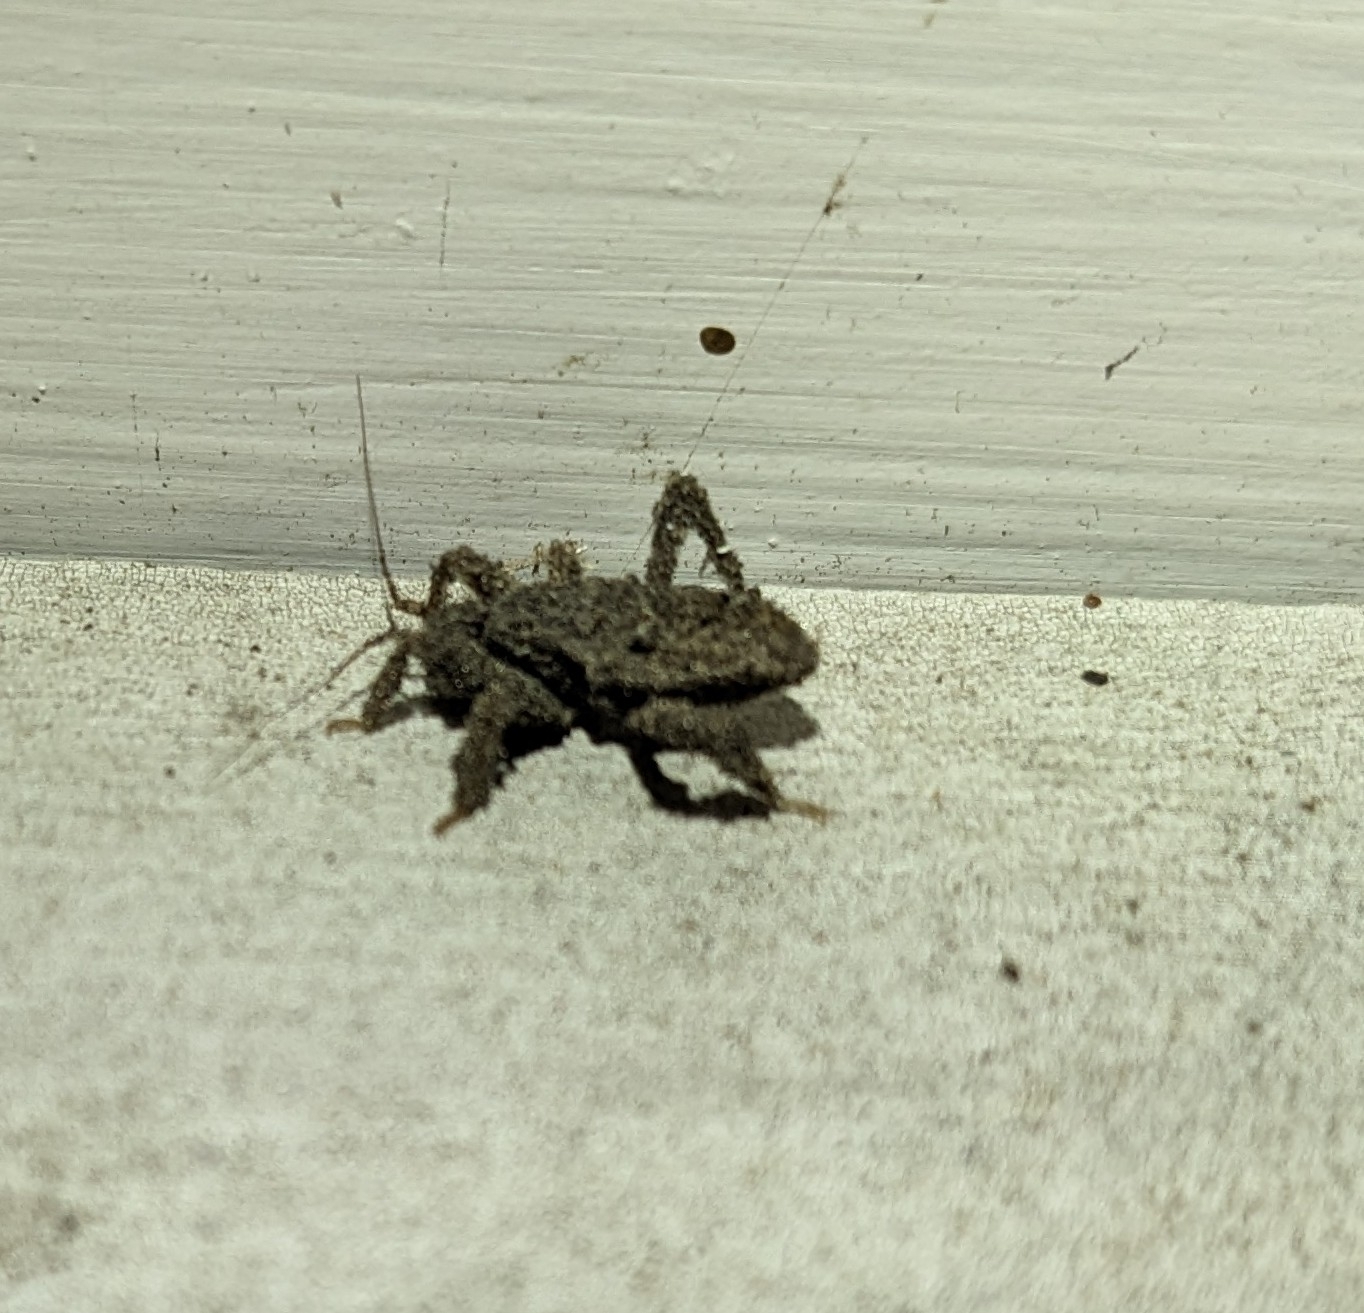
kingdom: Animalia
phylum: Arthropoda
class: Insecta
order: Hemiptera
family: Reduviidae
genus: Reduvius
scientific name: Reduvius personatus
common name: Masked hunter
